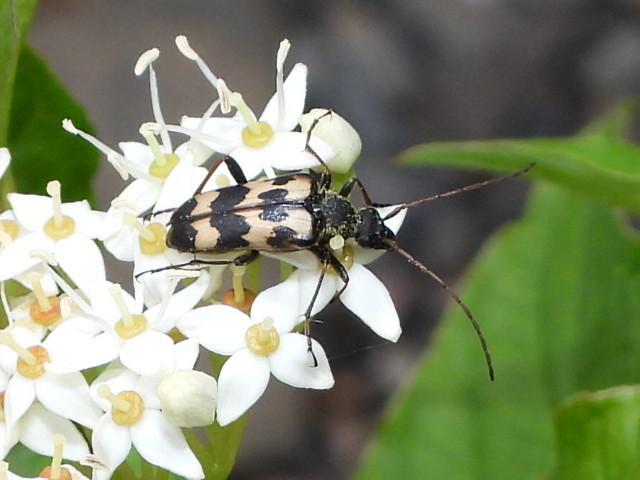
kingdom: Animalia
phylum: Arthropoda
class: Insecta
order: Coleoptera
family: Cerambycidae
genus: Judolia
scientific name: Judolia montivagans
